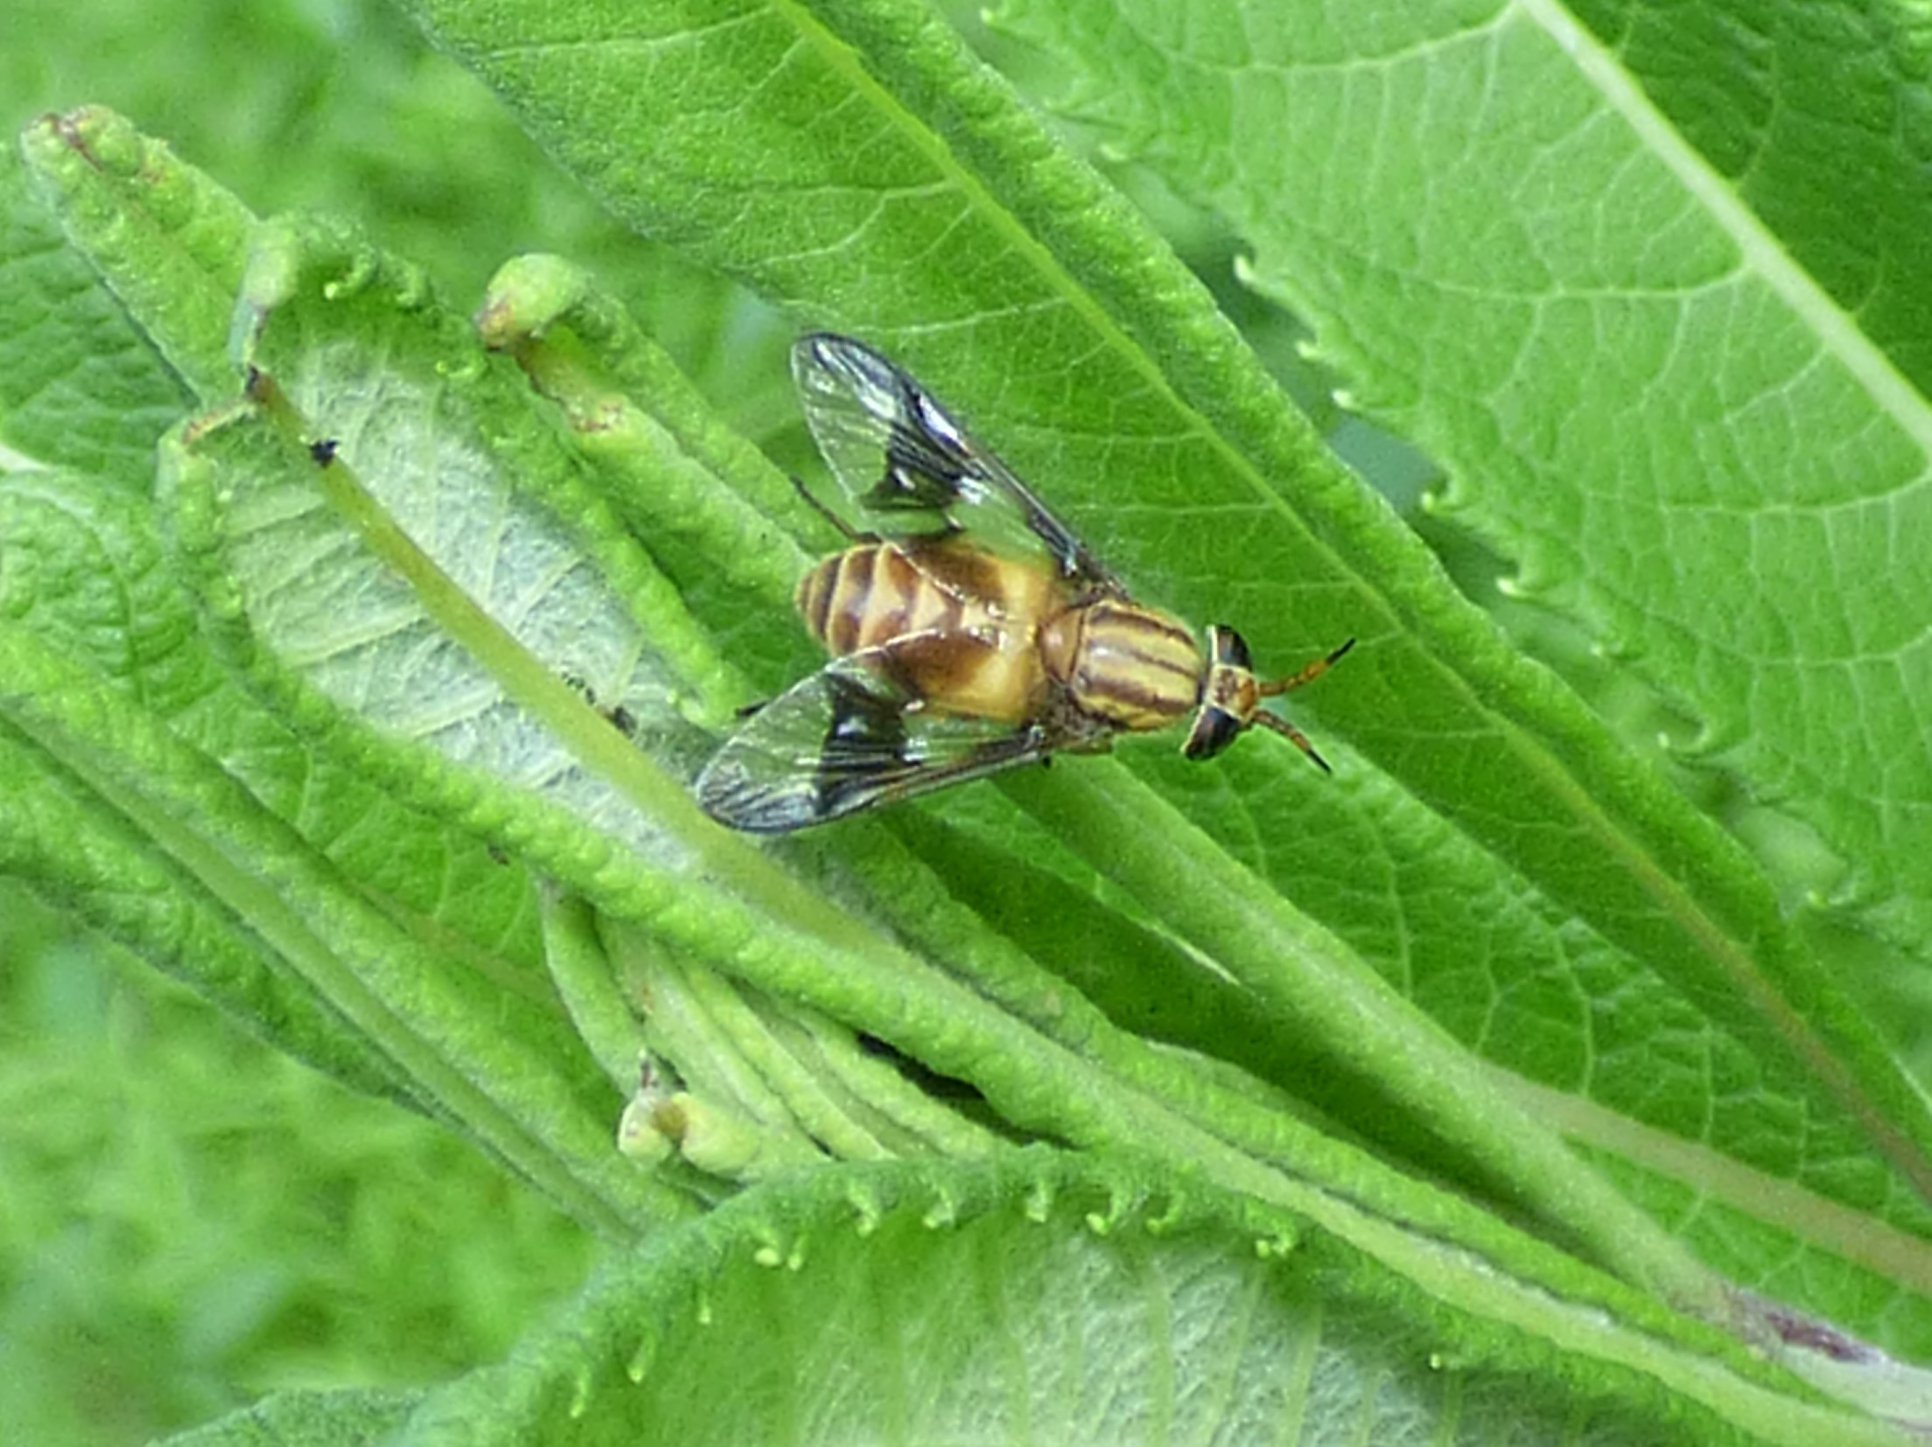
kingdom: Animalia
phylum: Arthropoda
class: Insecta
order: Diptera
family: Tabanidae
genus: Chrysops
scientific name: Chrysops vittatus
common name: Striped deer fly
